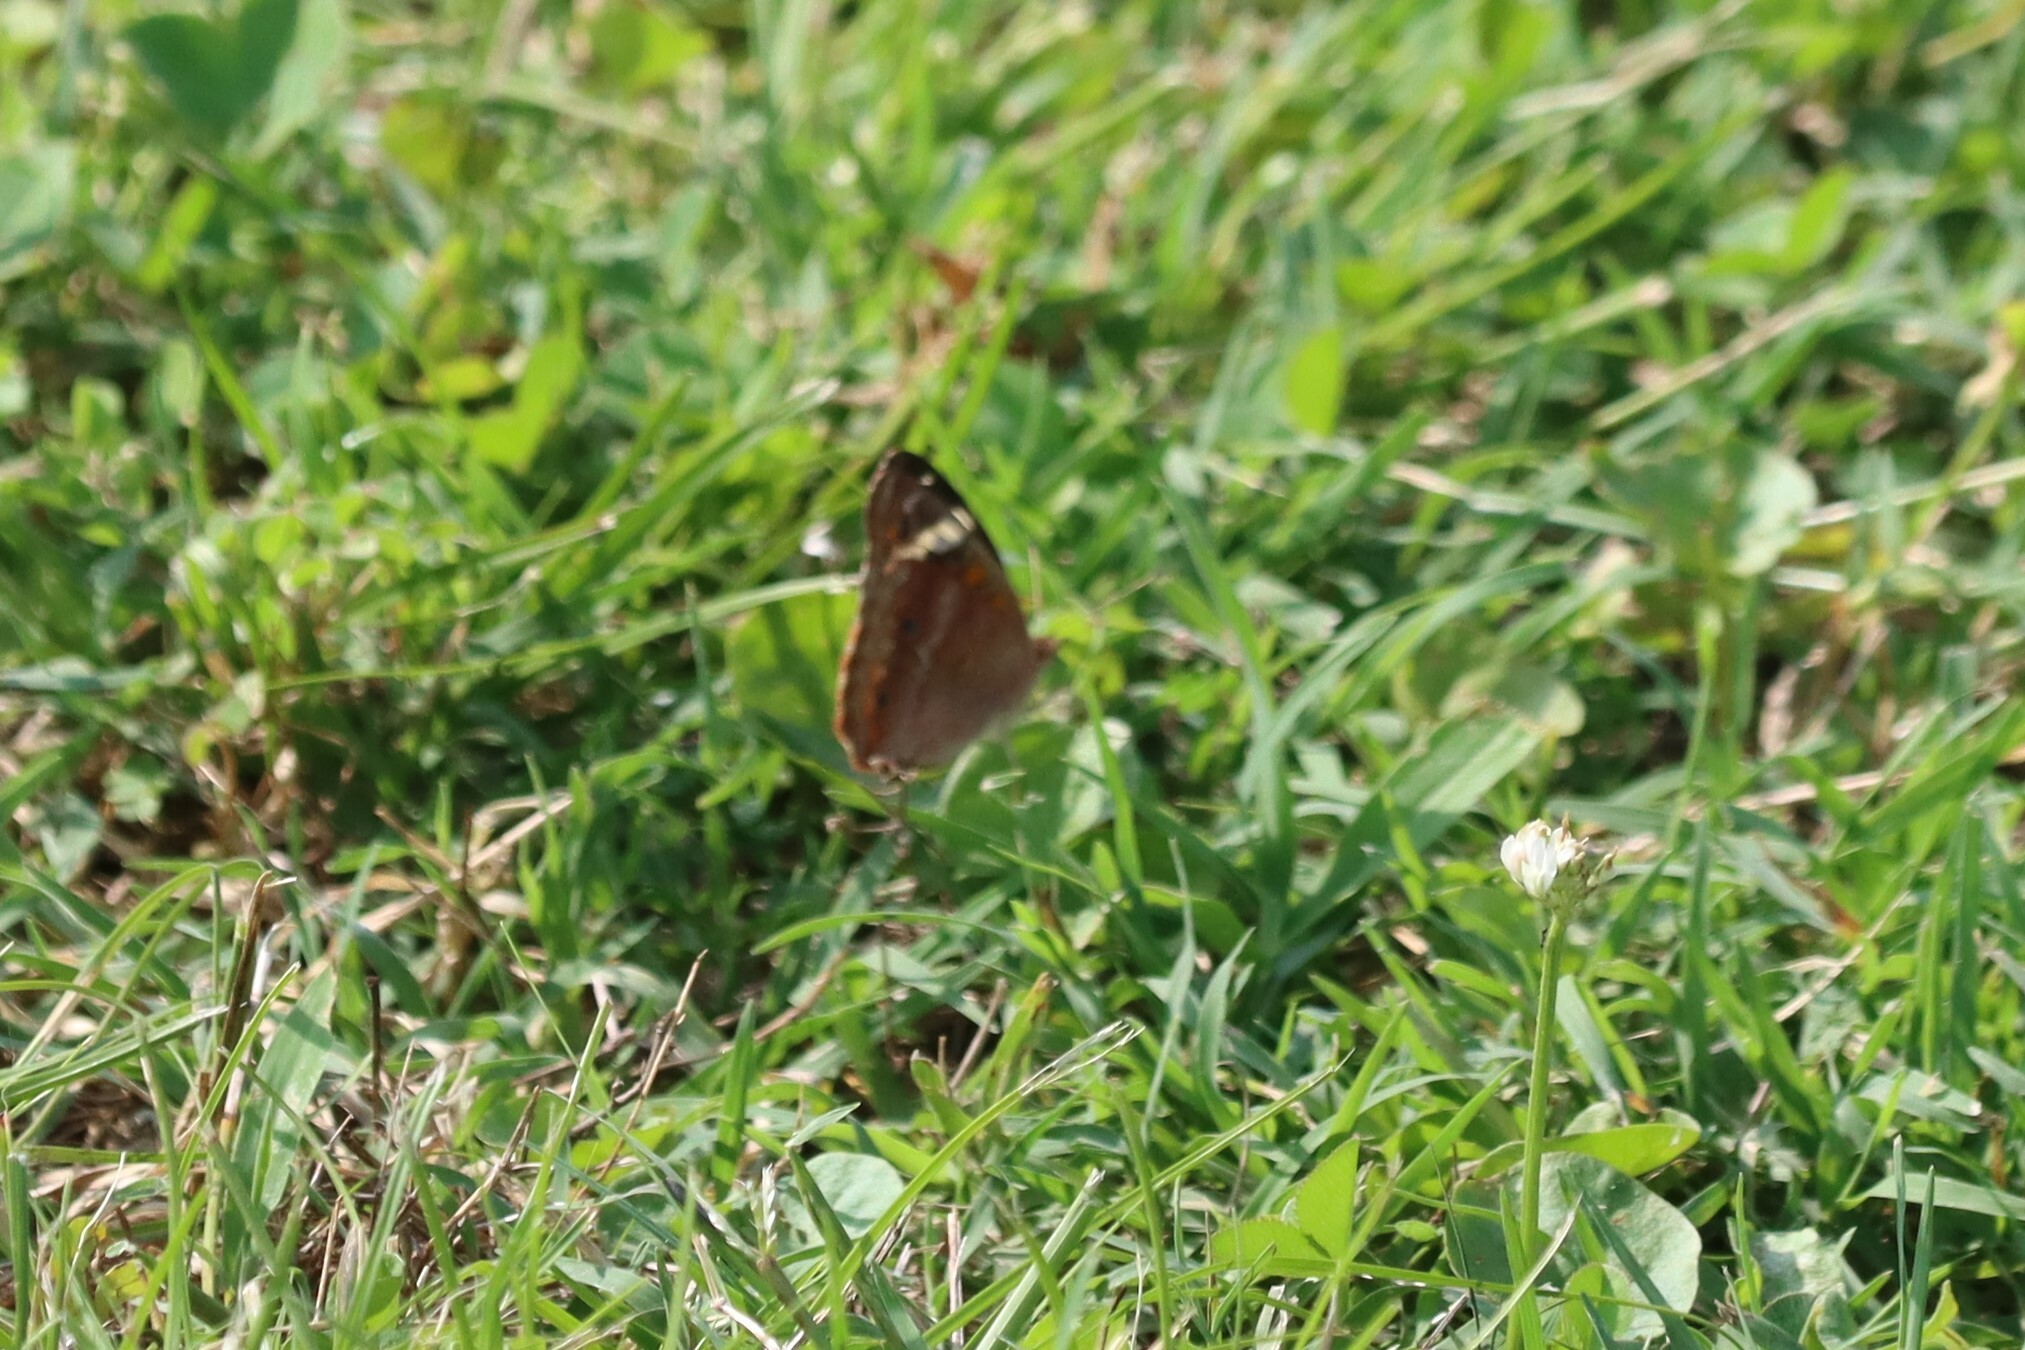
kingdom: Animalia
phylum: Arthropoda
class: Insecta
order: Lepidoptera
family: Nymphalidae
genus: Junonia
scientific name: Junonia coenia
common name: Common buckeye
